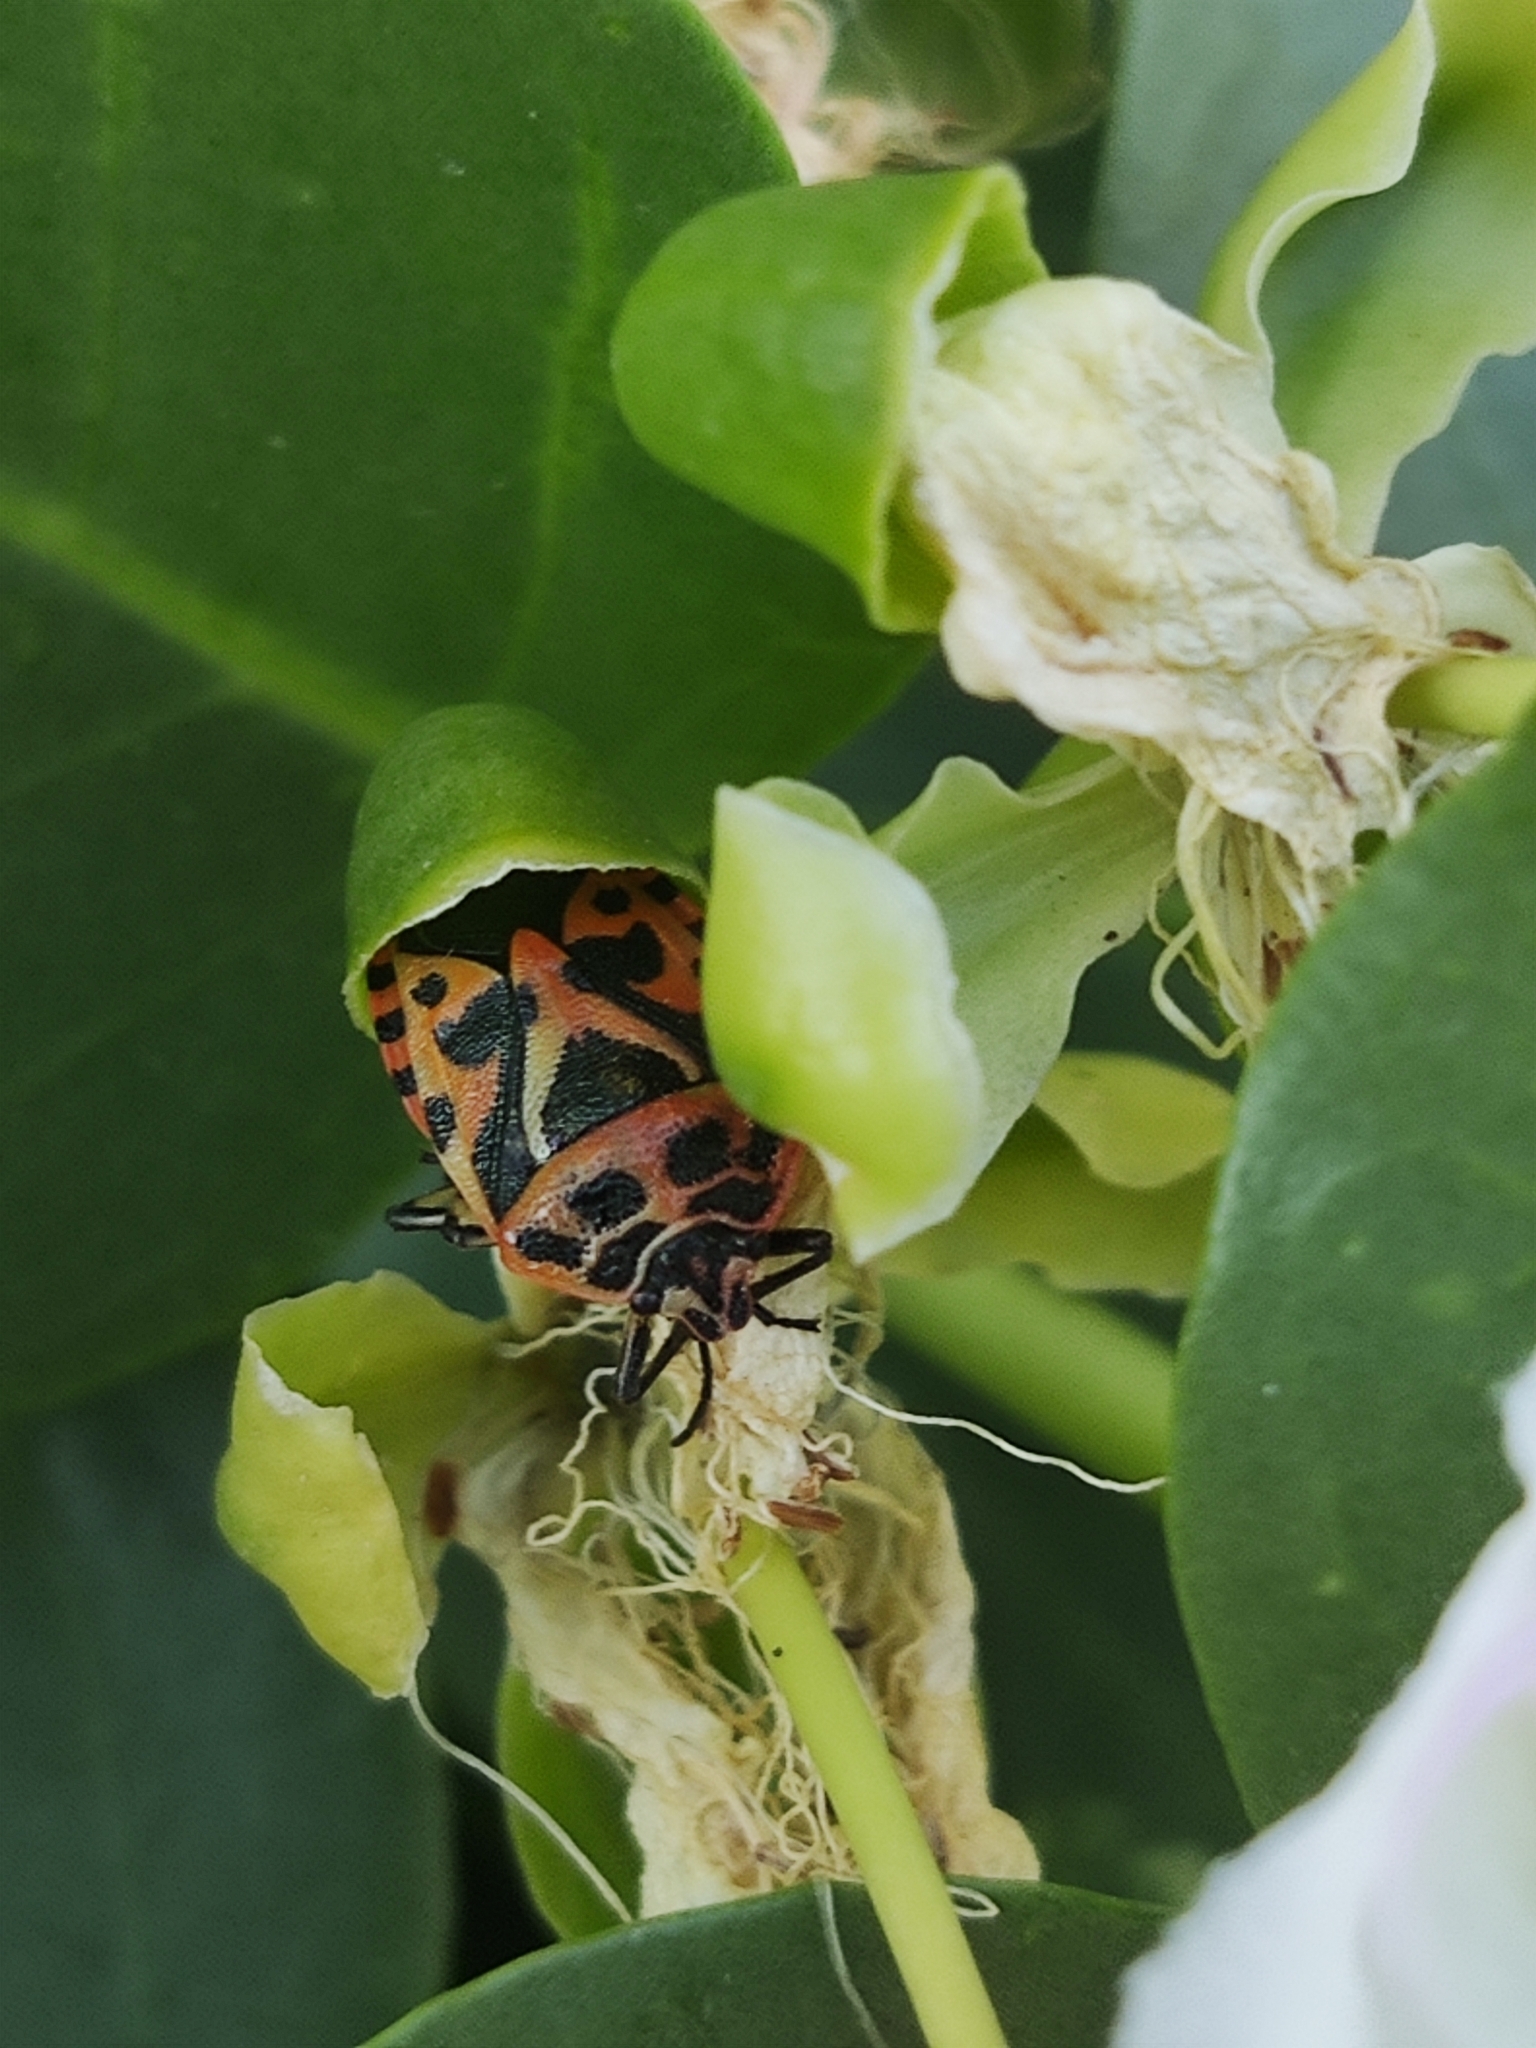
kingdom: Animalia
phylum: Arthropoda
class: Insecta
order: Hemiptera
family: Pentatomidae
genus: Eurydema
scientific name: Eurydema ventralis
